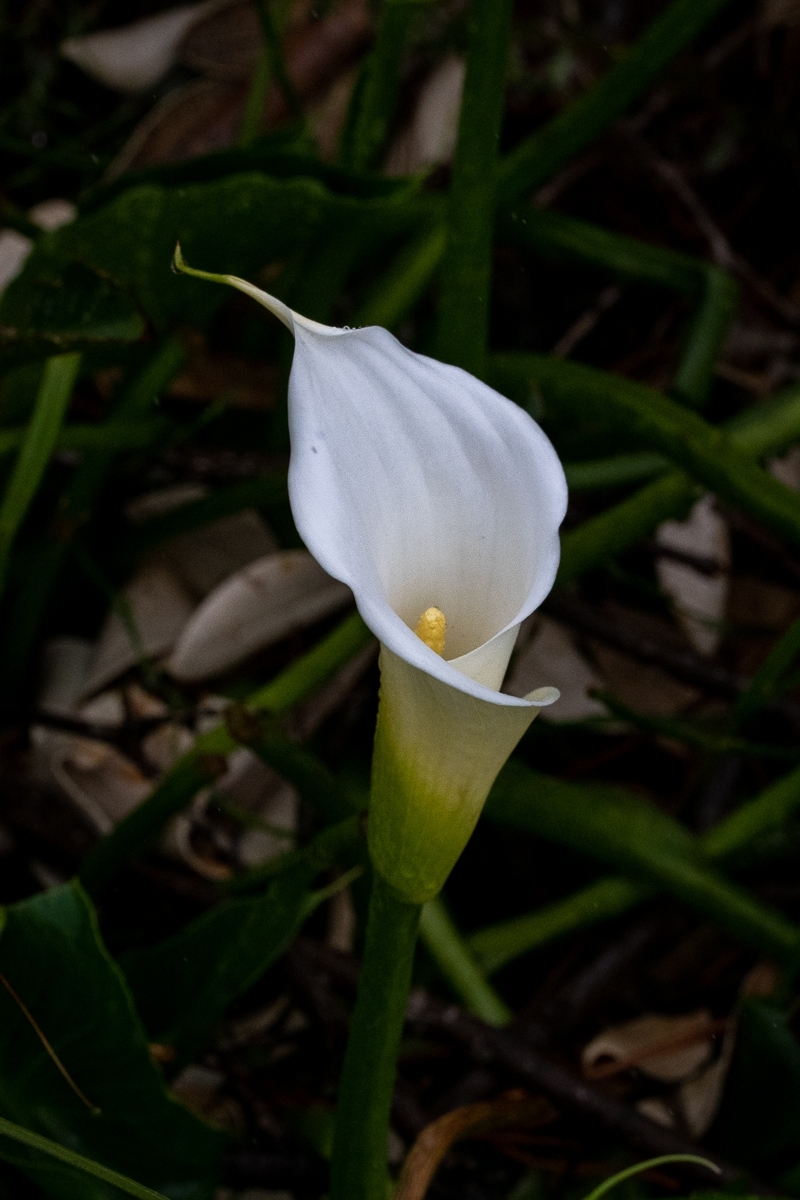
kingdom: Plantae
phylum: Tracheophyta
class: Liliopsida
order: Alismatales
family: Araceae
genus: Zantedeschia
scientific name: Zantedeschia aethiopica
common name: Altar-lily
